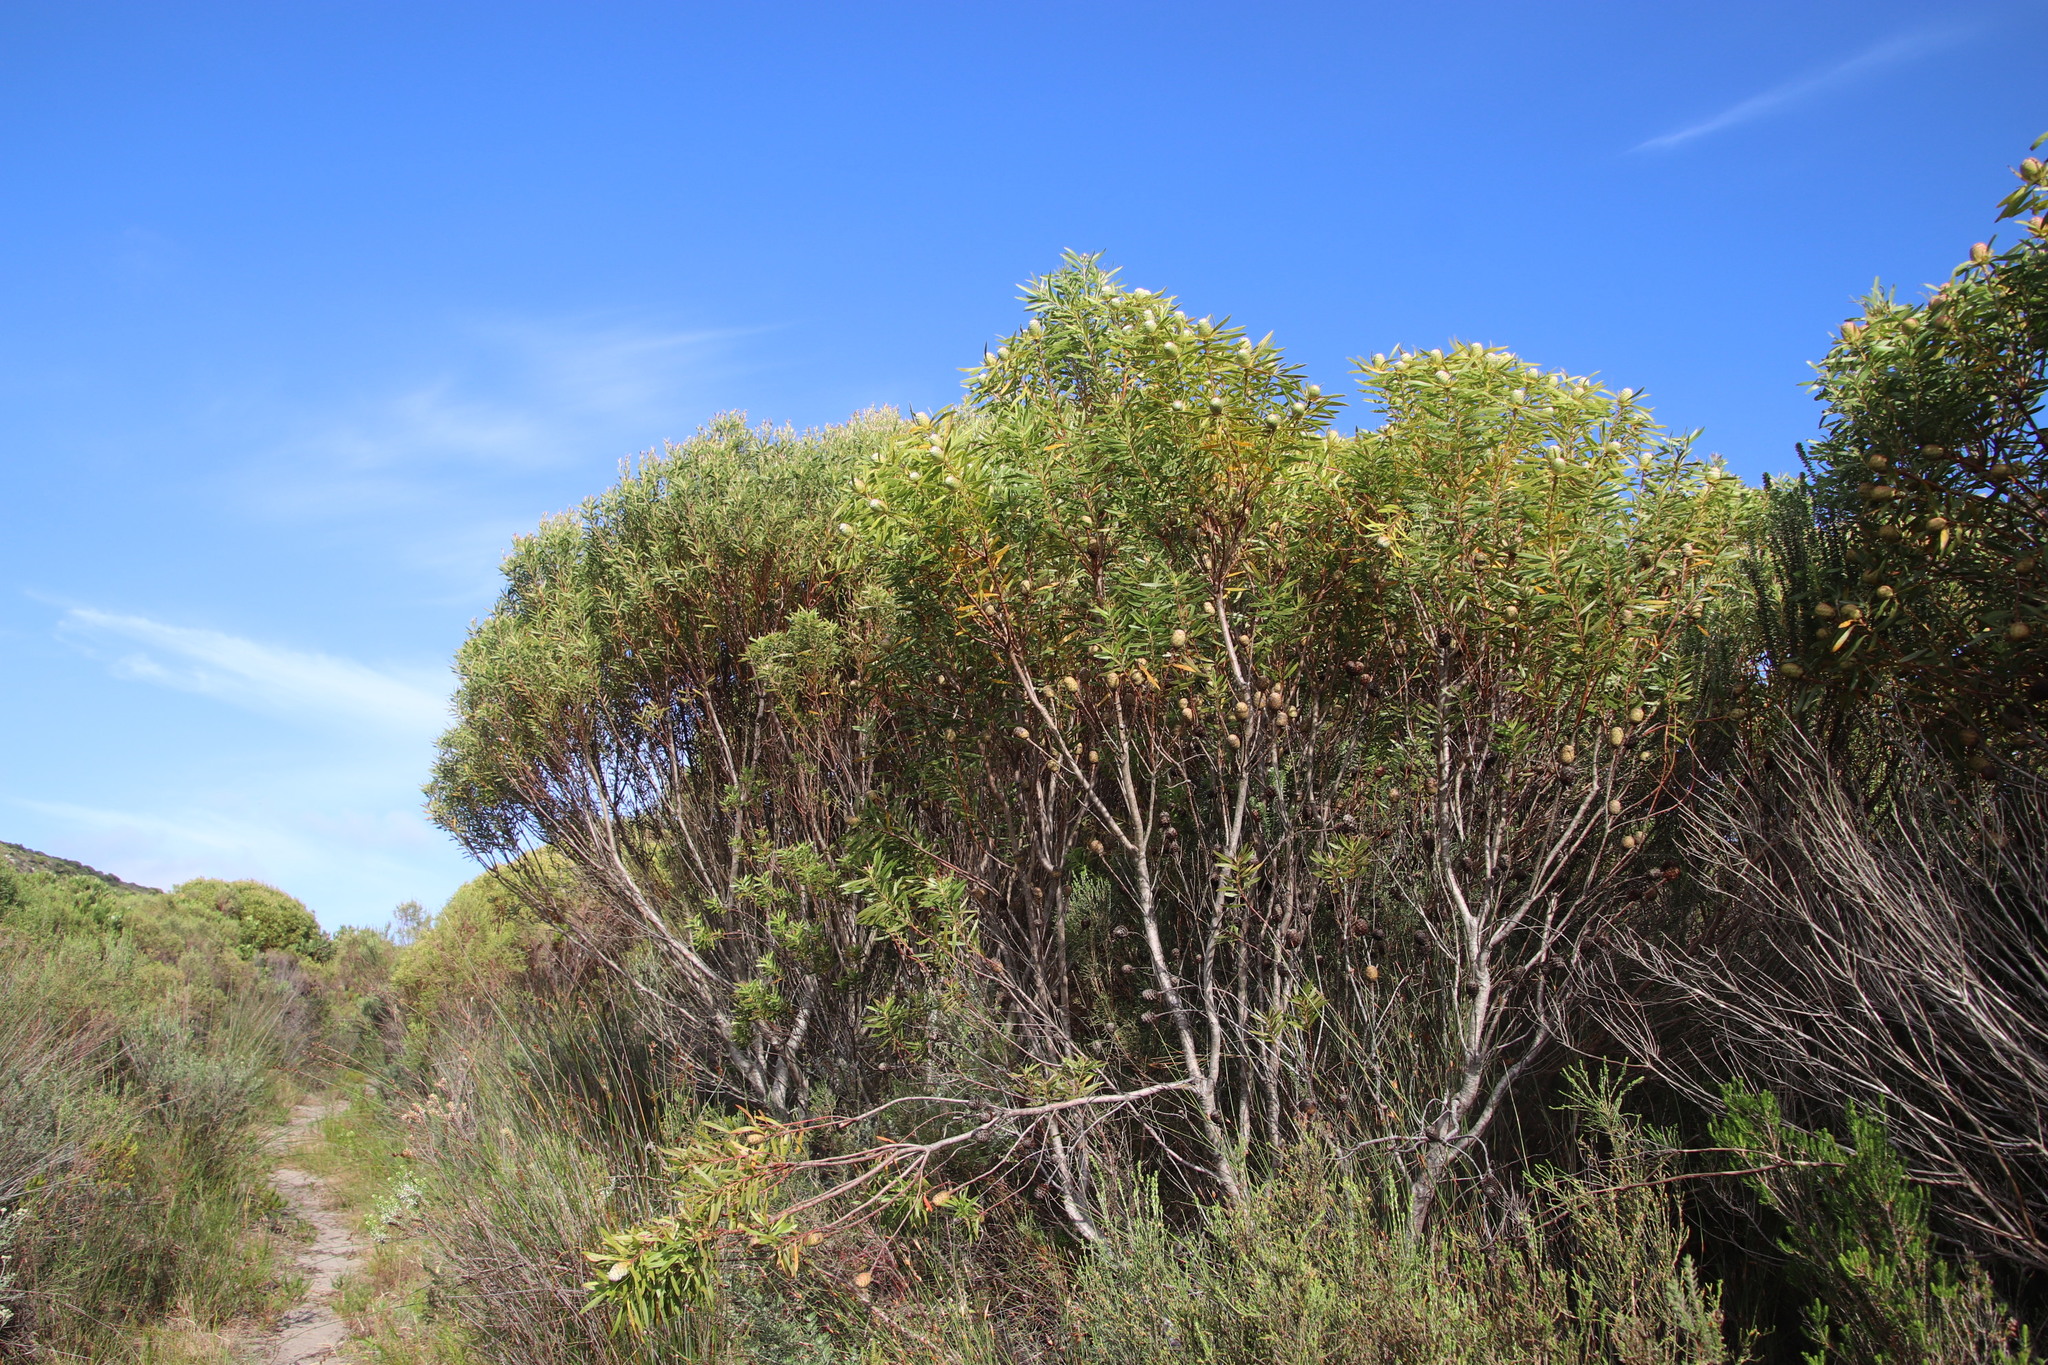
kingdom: Plantae
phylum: Tracheophyta
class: Magnoliopsida
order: Proteales
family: Proteaceae
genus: Leucadendron
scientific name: Leucadendron coniferum
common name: Dune conebush
